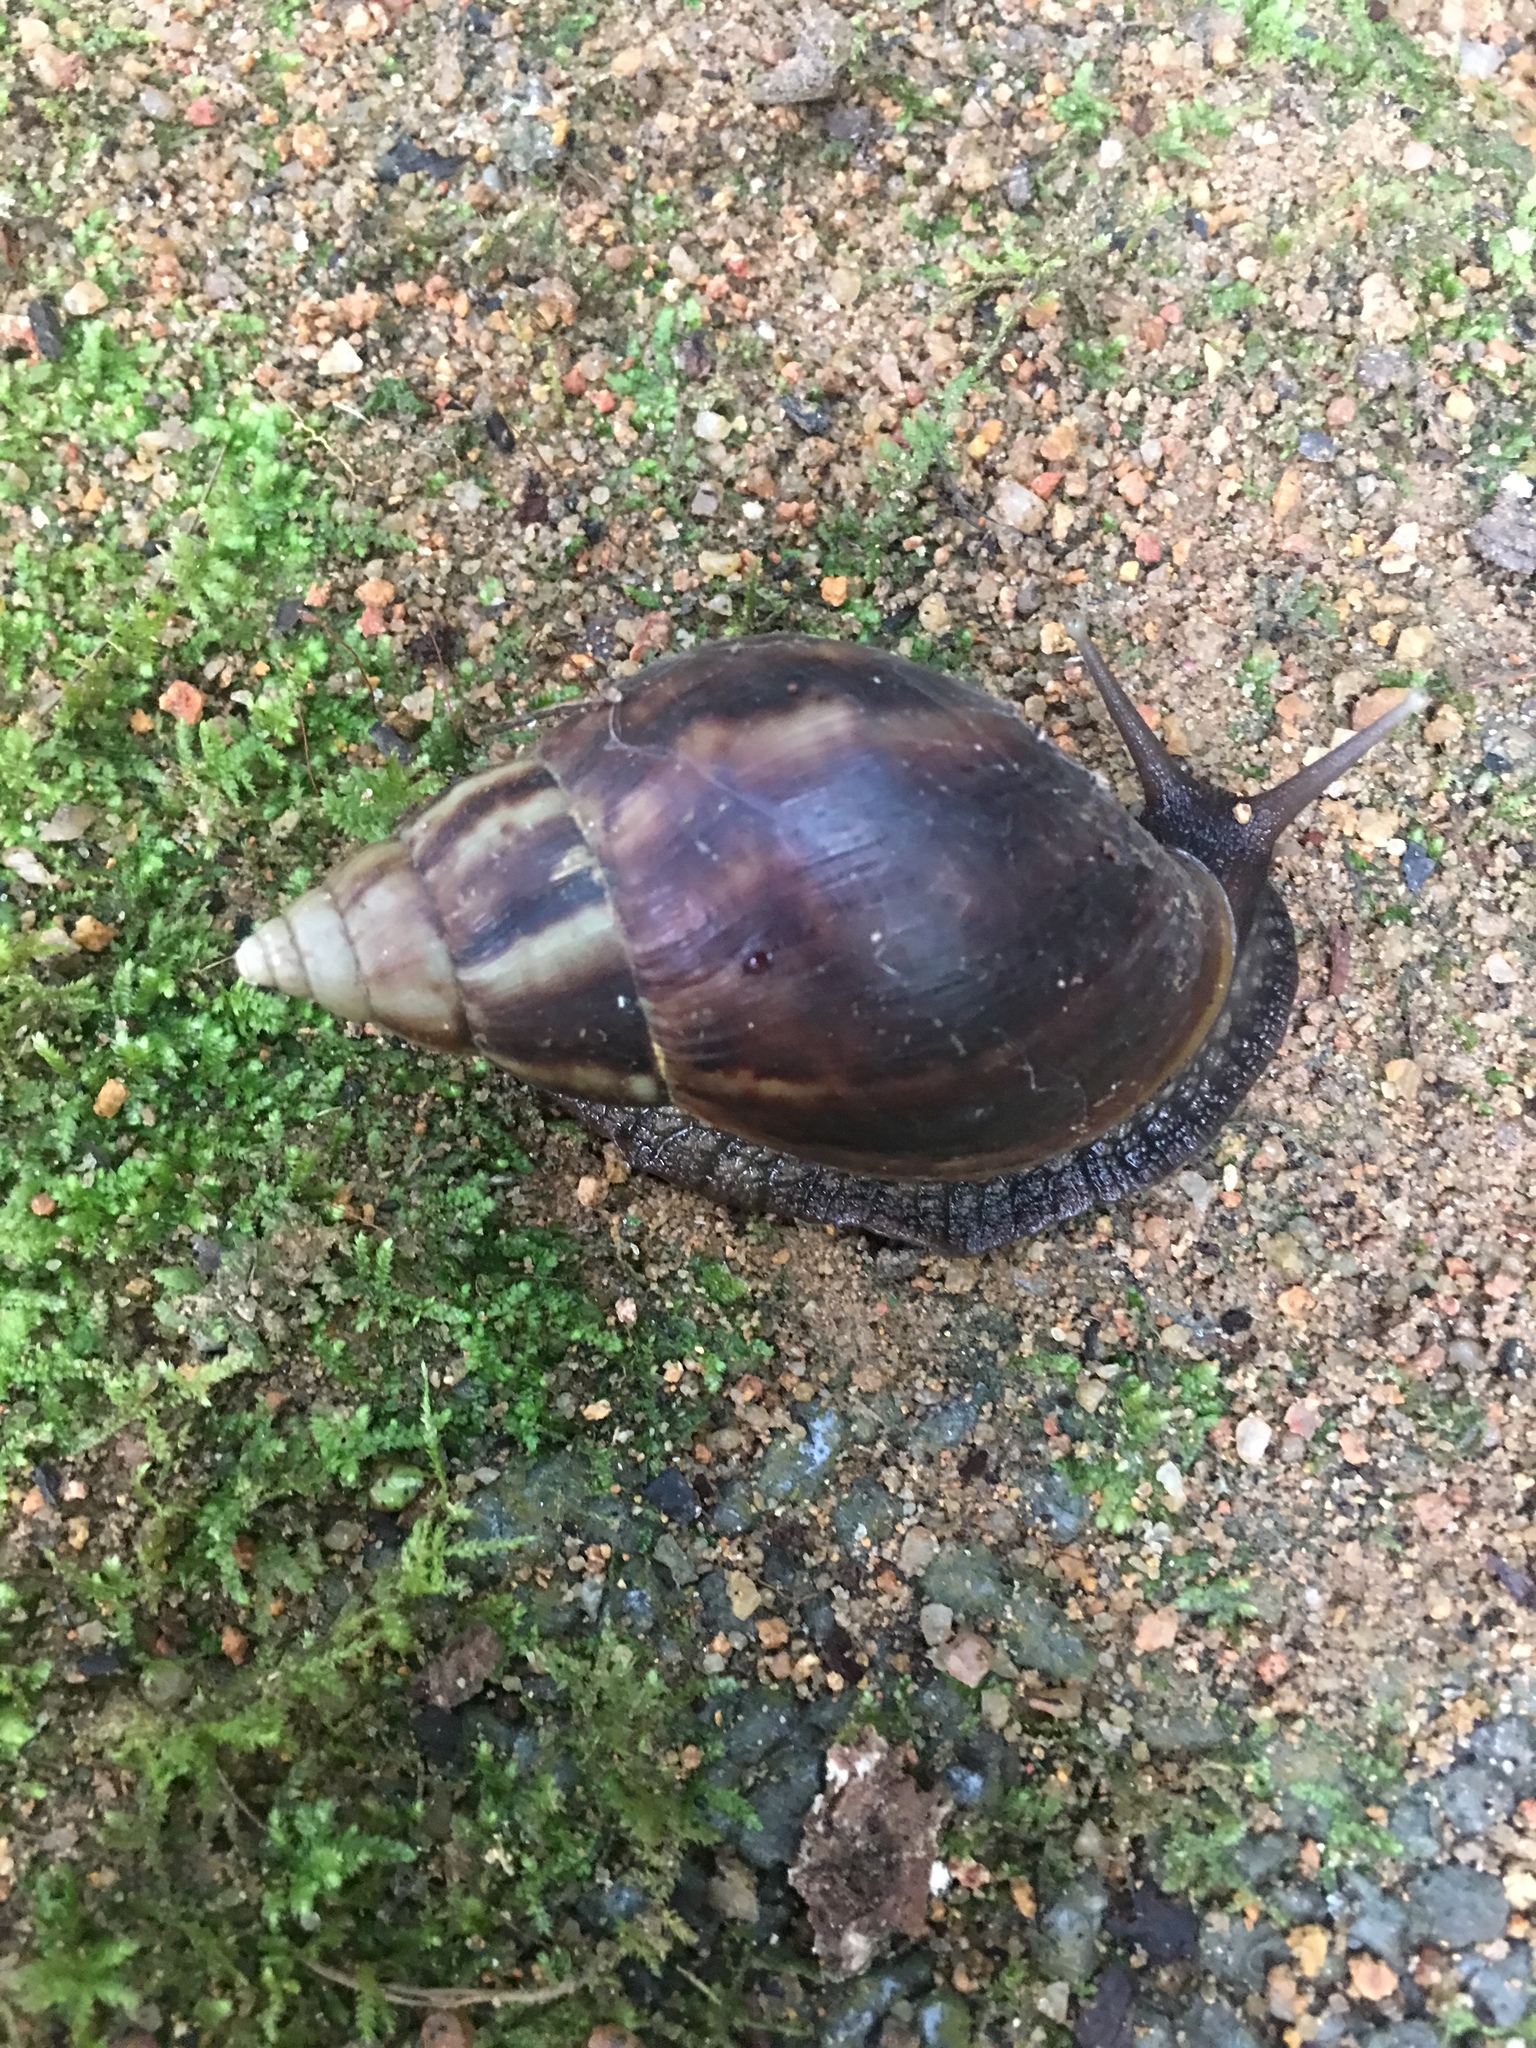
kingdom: Animalia
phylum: Mollusca
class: Gastropoda
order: Stylommatophora
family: Achatinidae
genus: Lissachatina
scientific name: Lissachatina fulica
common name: Giant african snail
